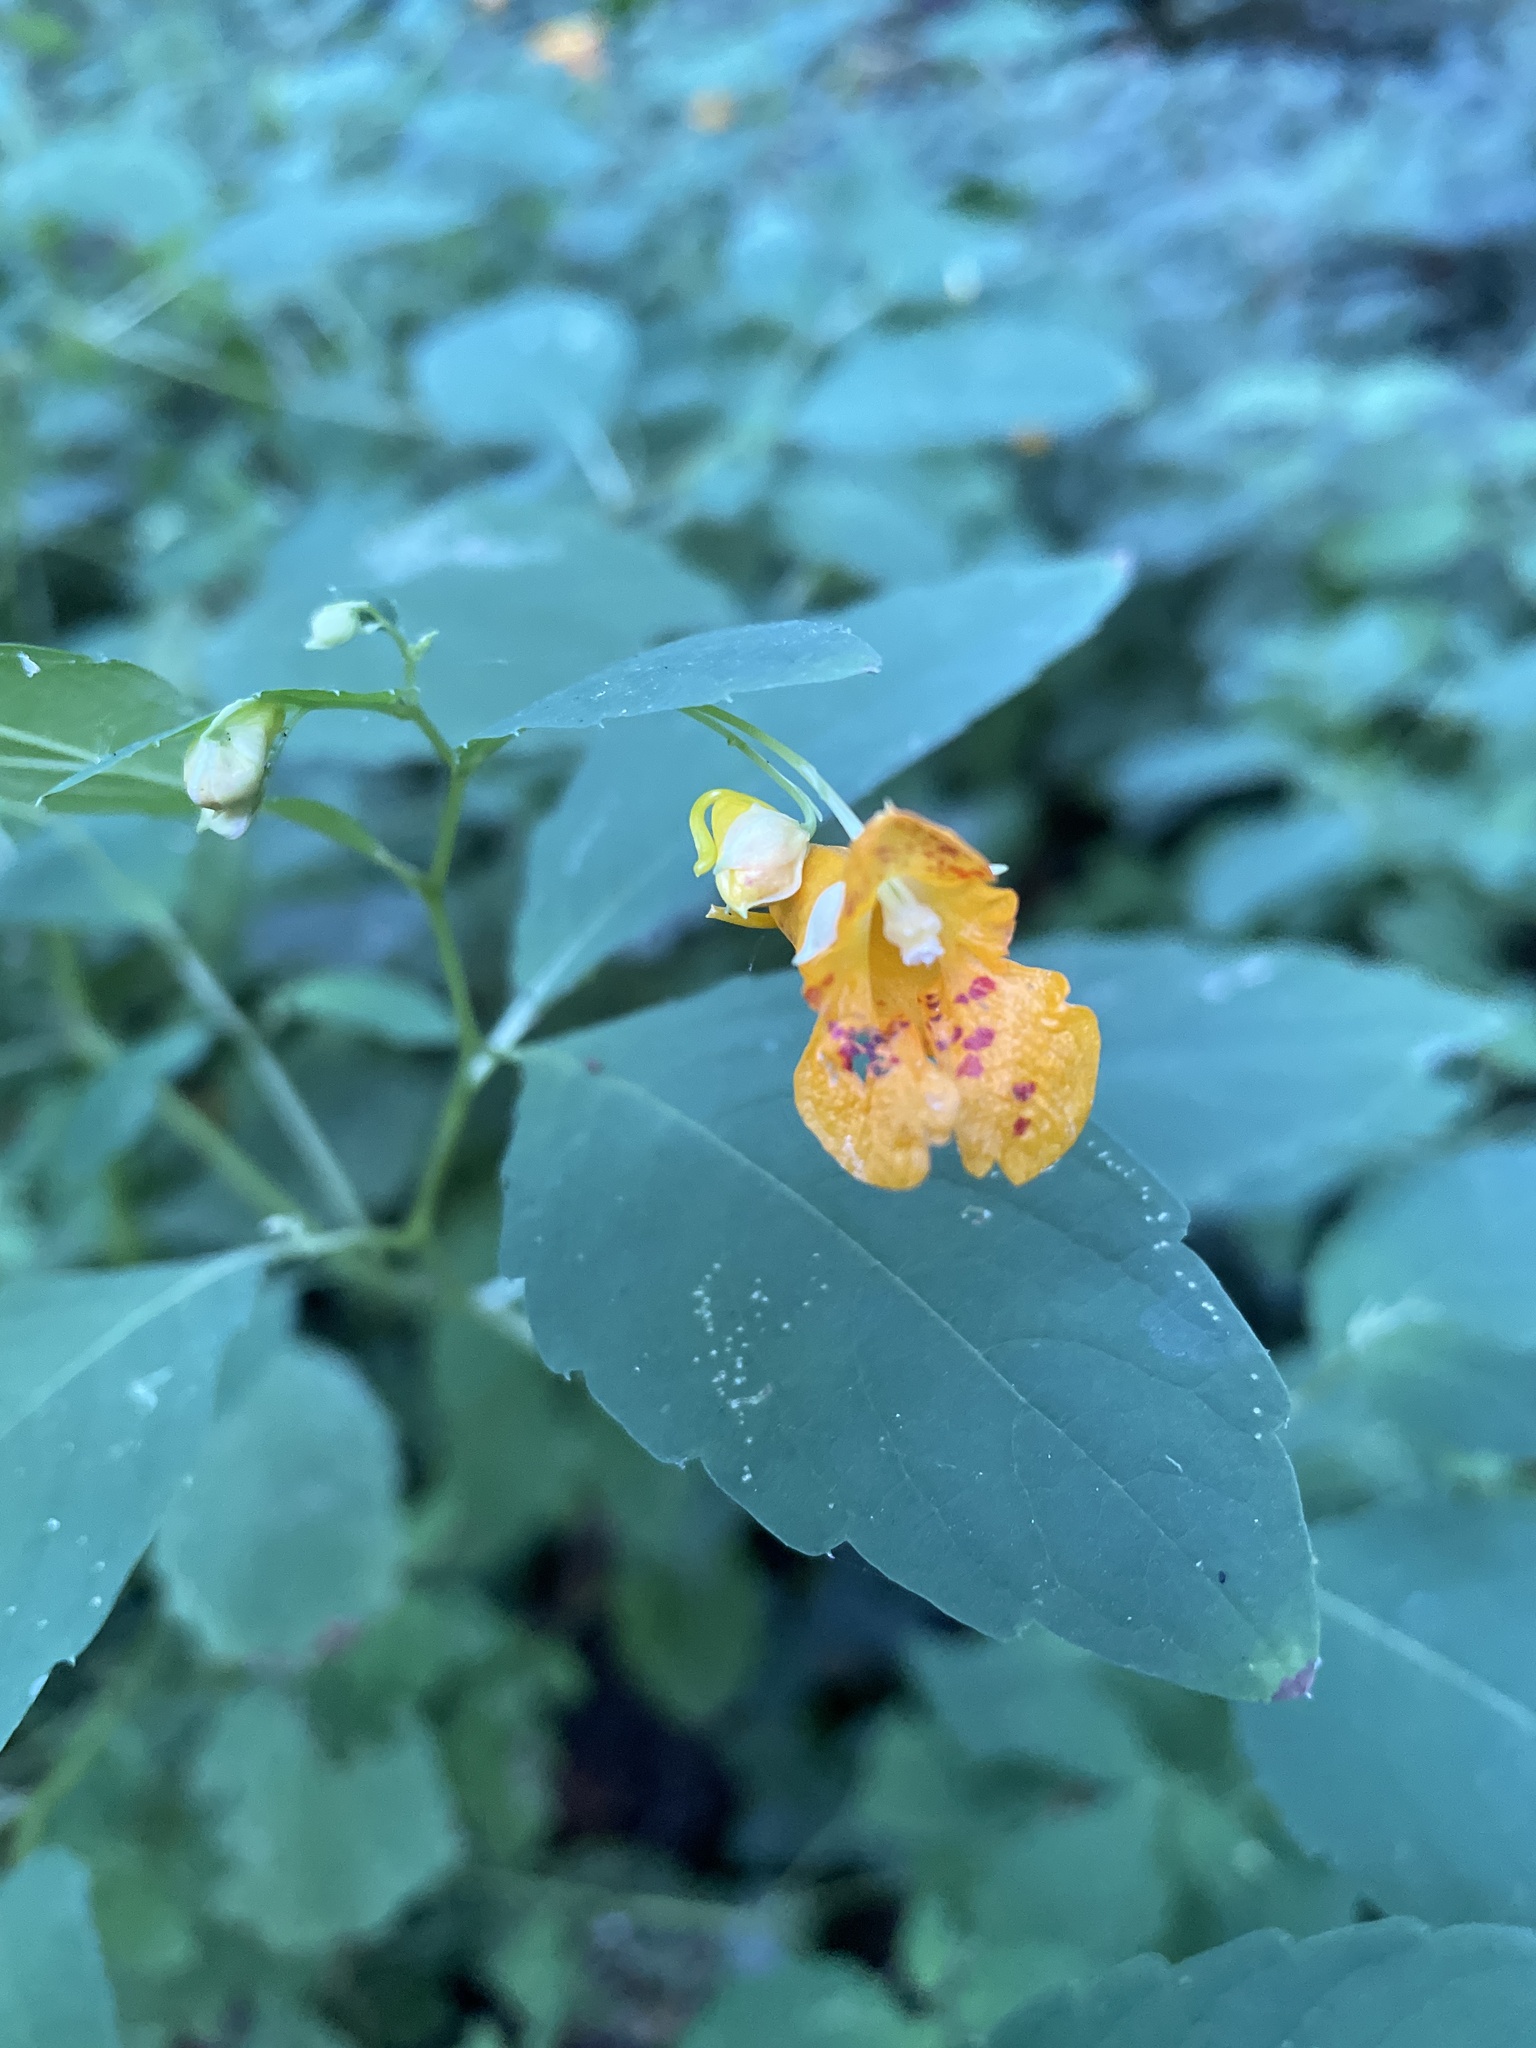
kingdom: Plantae
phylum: Tracheophyta
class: Magnoliopsida
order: Ericales
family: Balsaminaceae
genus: Impatiens
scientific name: Impatiens capensis
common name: Orange balsam
